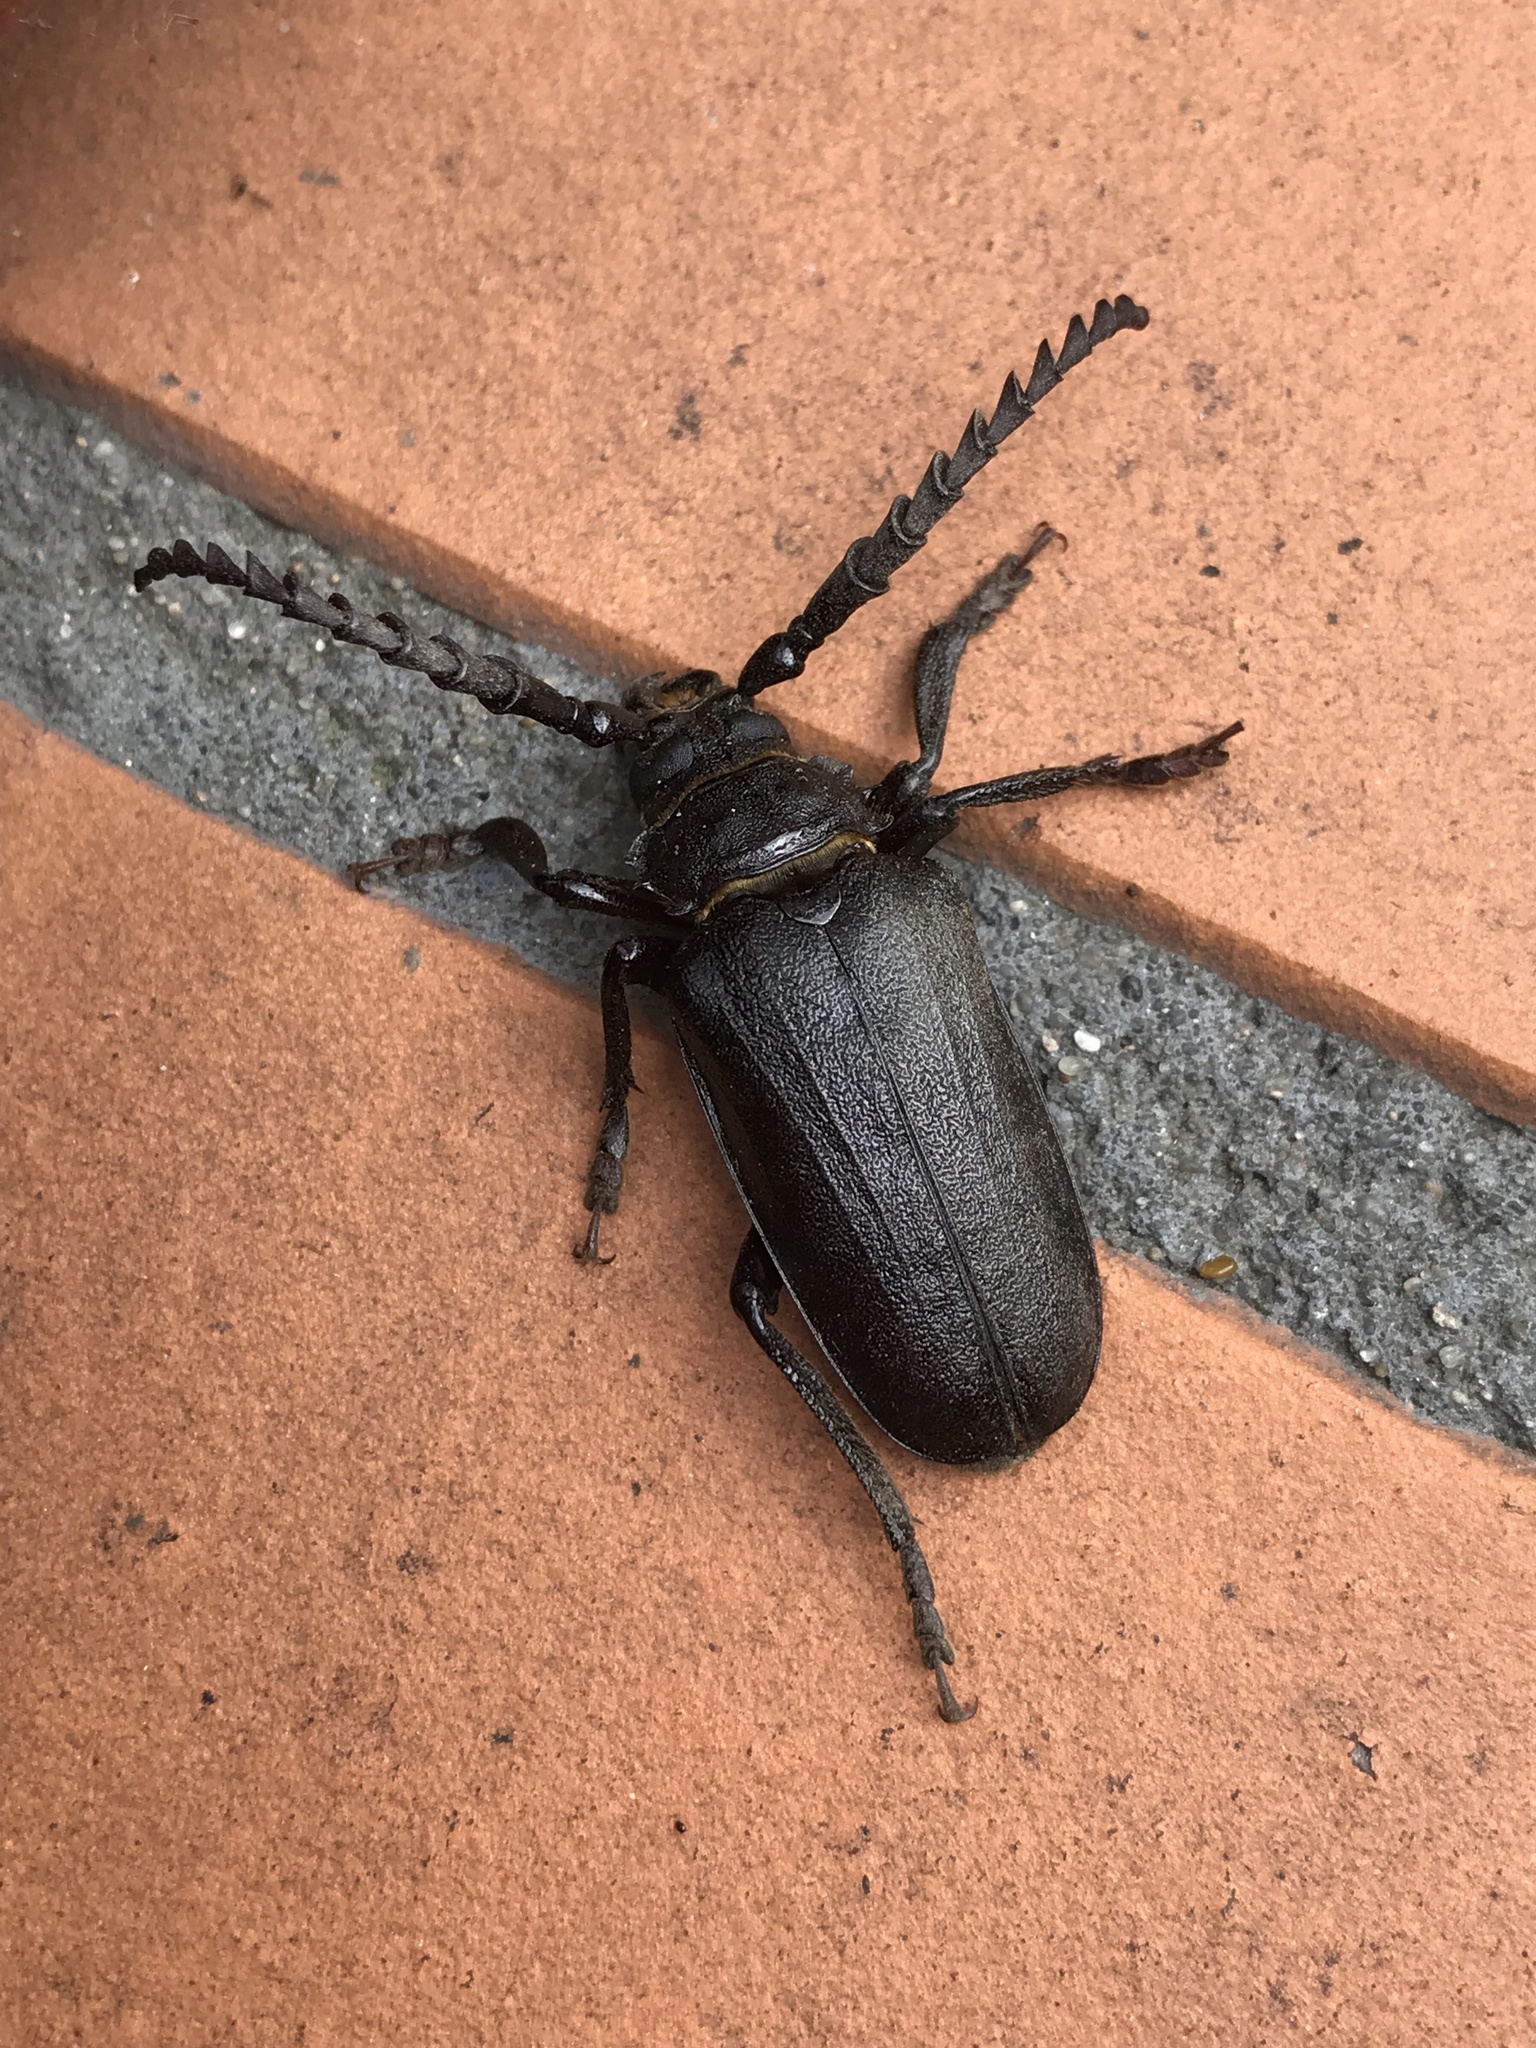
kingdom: Animalia
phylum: Arthropoda
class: Insecta
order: Coleoptera
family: Cerambycidae
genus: Prionus
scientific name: Prionus coriarius
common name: Tanner beetle
